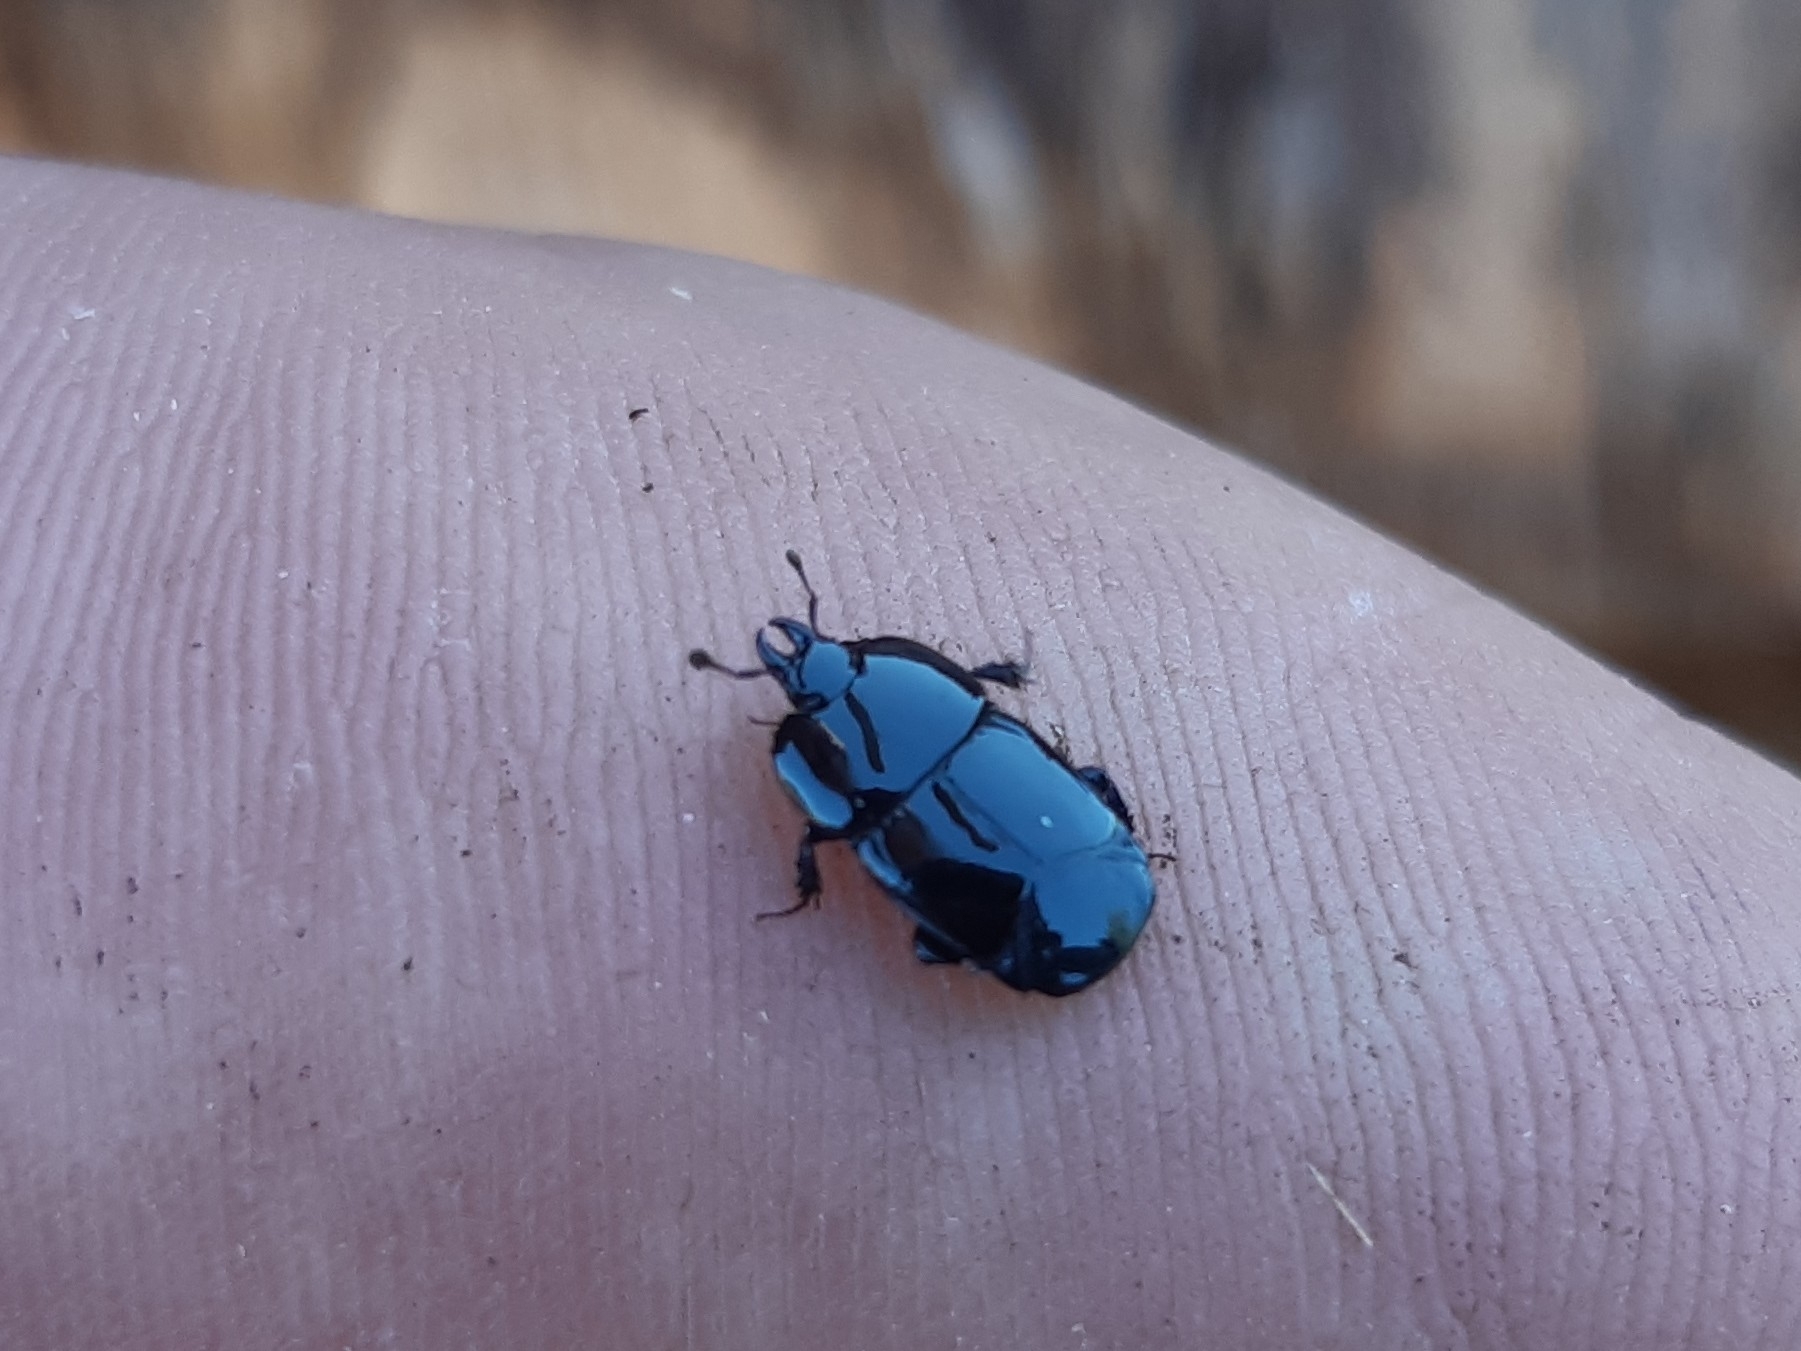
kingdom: Animalia
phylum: Arthropoda
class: Insecta
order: Coleoptera
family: Histeridae
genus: Hololepta
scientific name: Hololepta plana
